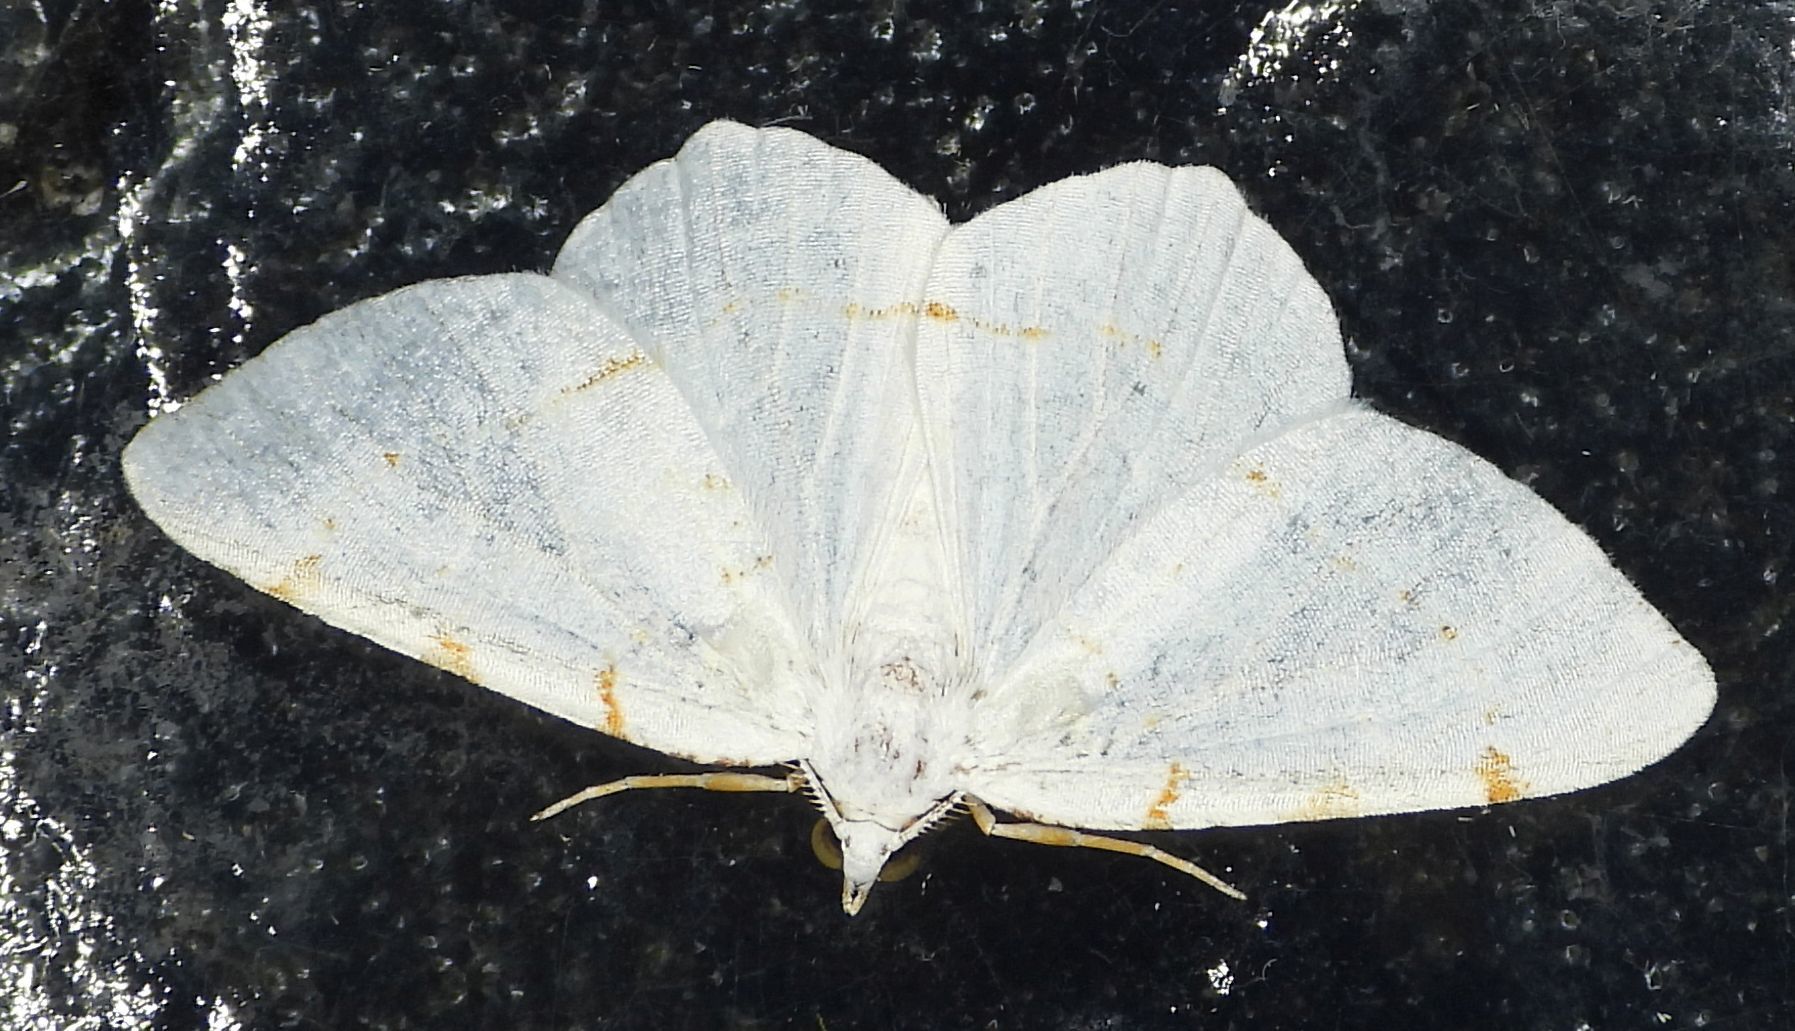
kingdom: Animalia
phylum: Arthropoda
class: Insecta
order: Lepidoptera
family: Geometridae
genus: Macaria
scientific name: Macaria pustularia
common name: Lesser maple spanworm moth
